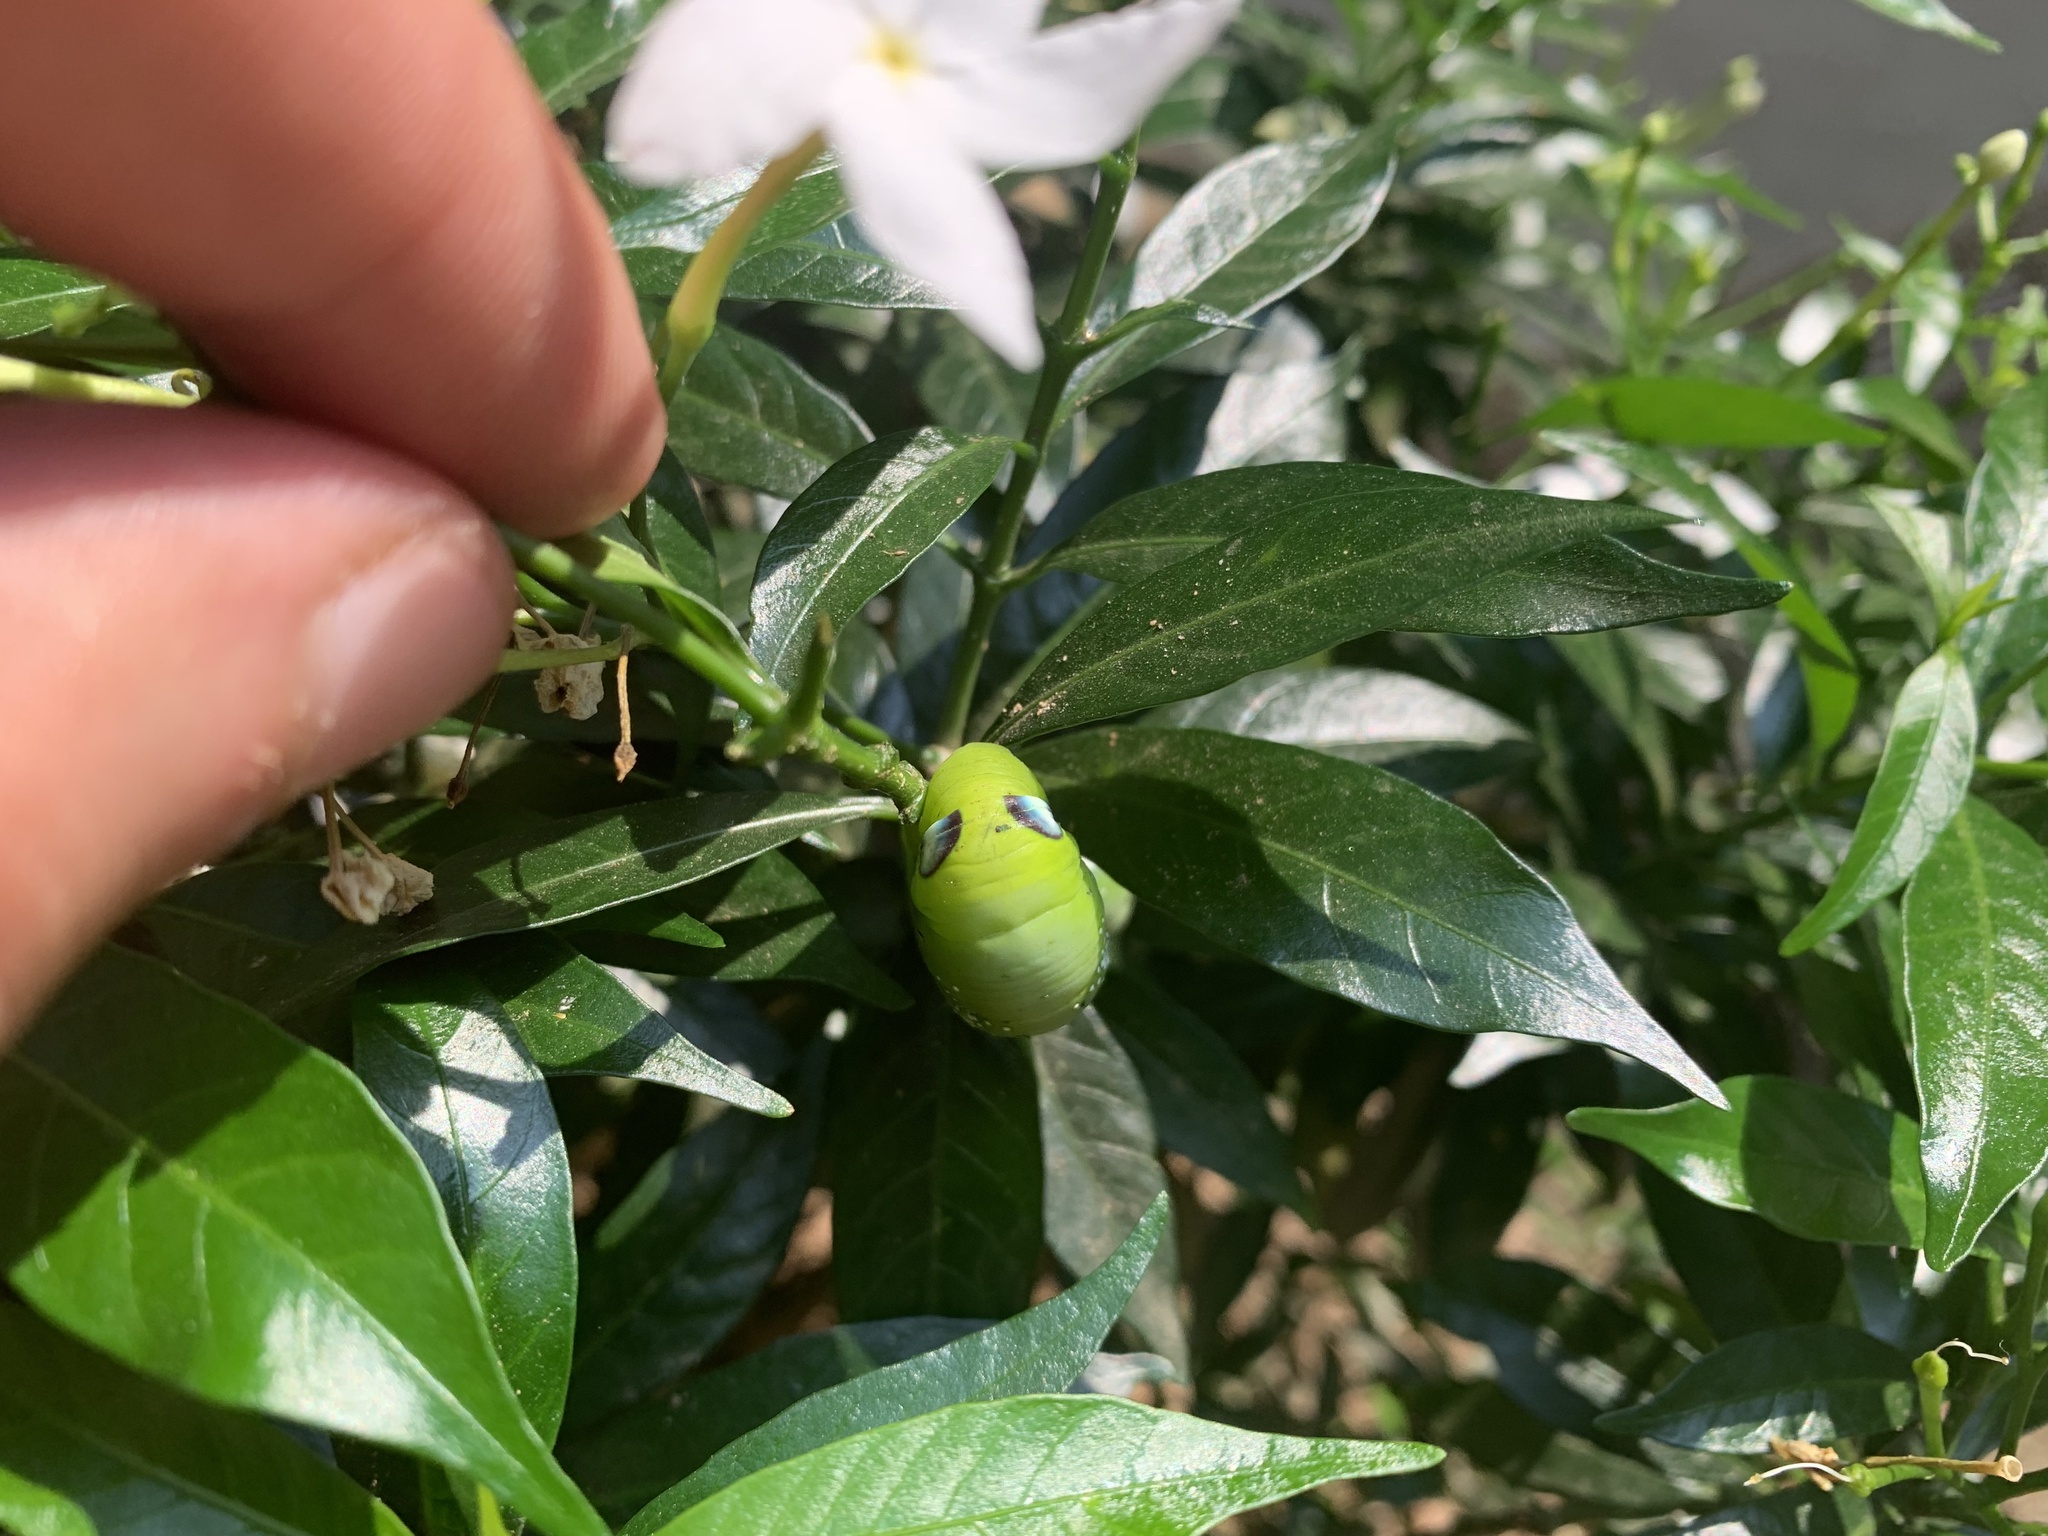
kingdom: Animalia
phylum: Arthropoda
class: Insecta
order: Lepidoptera
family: Sphingidae
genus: Daphnis
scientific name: Daphnis nerii
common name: Oleander hawk-moth
